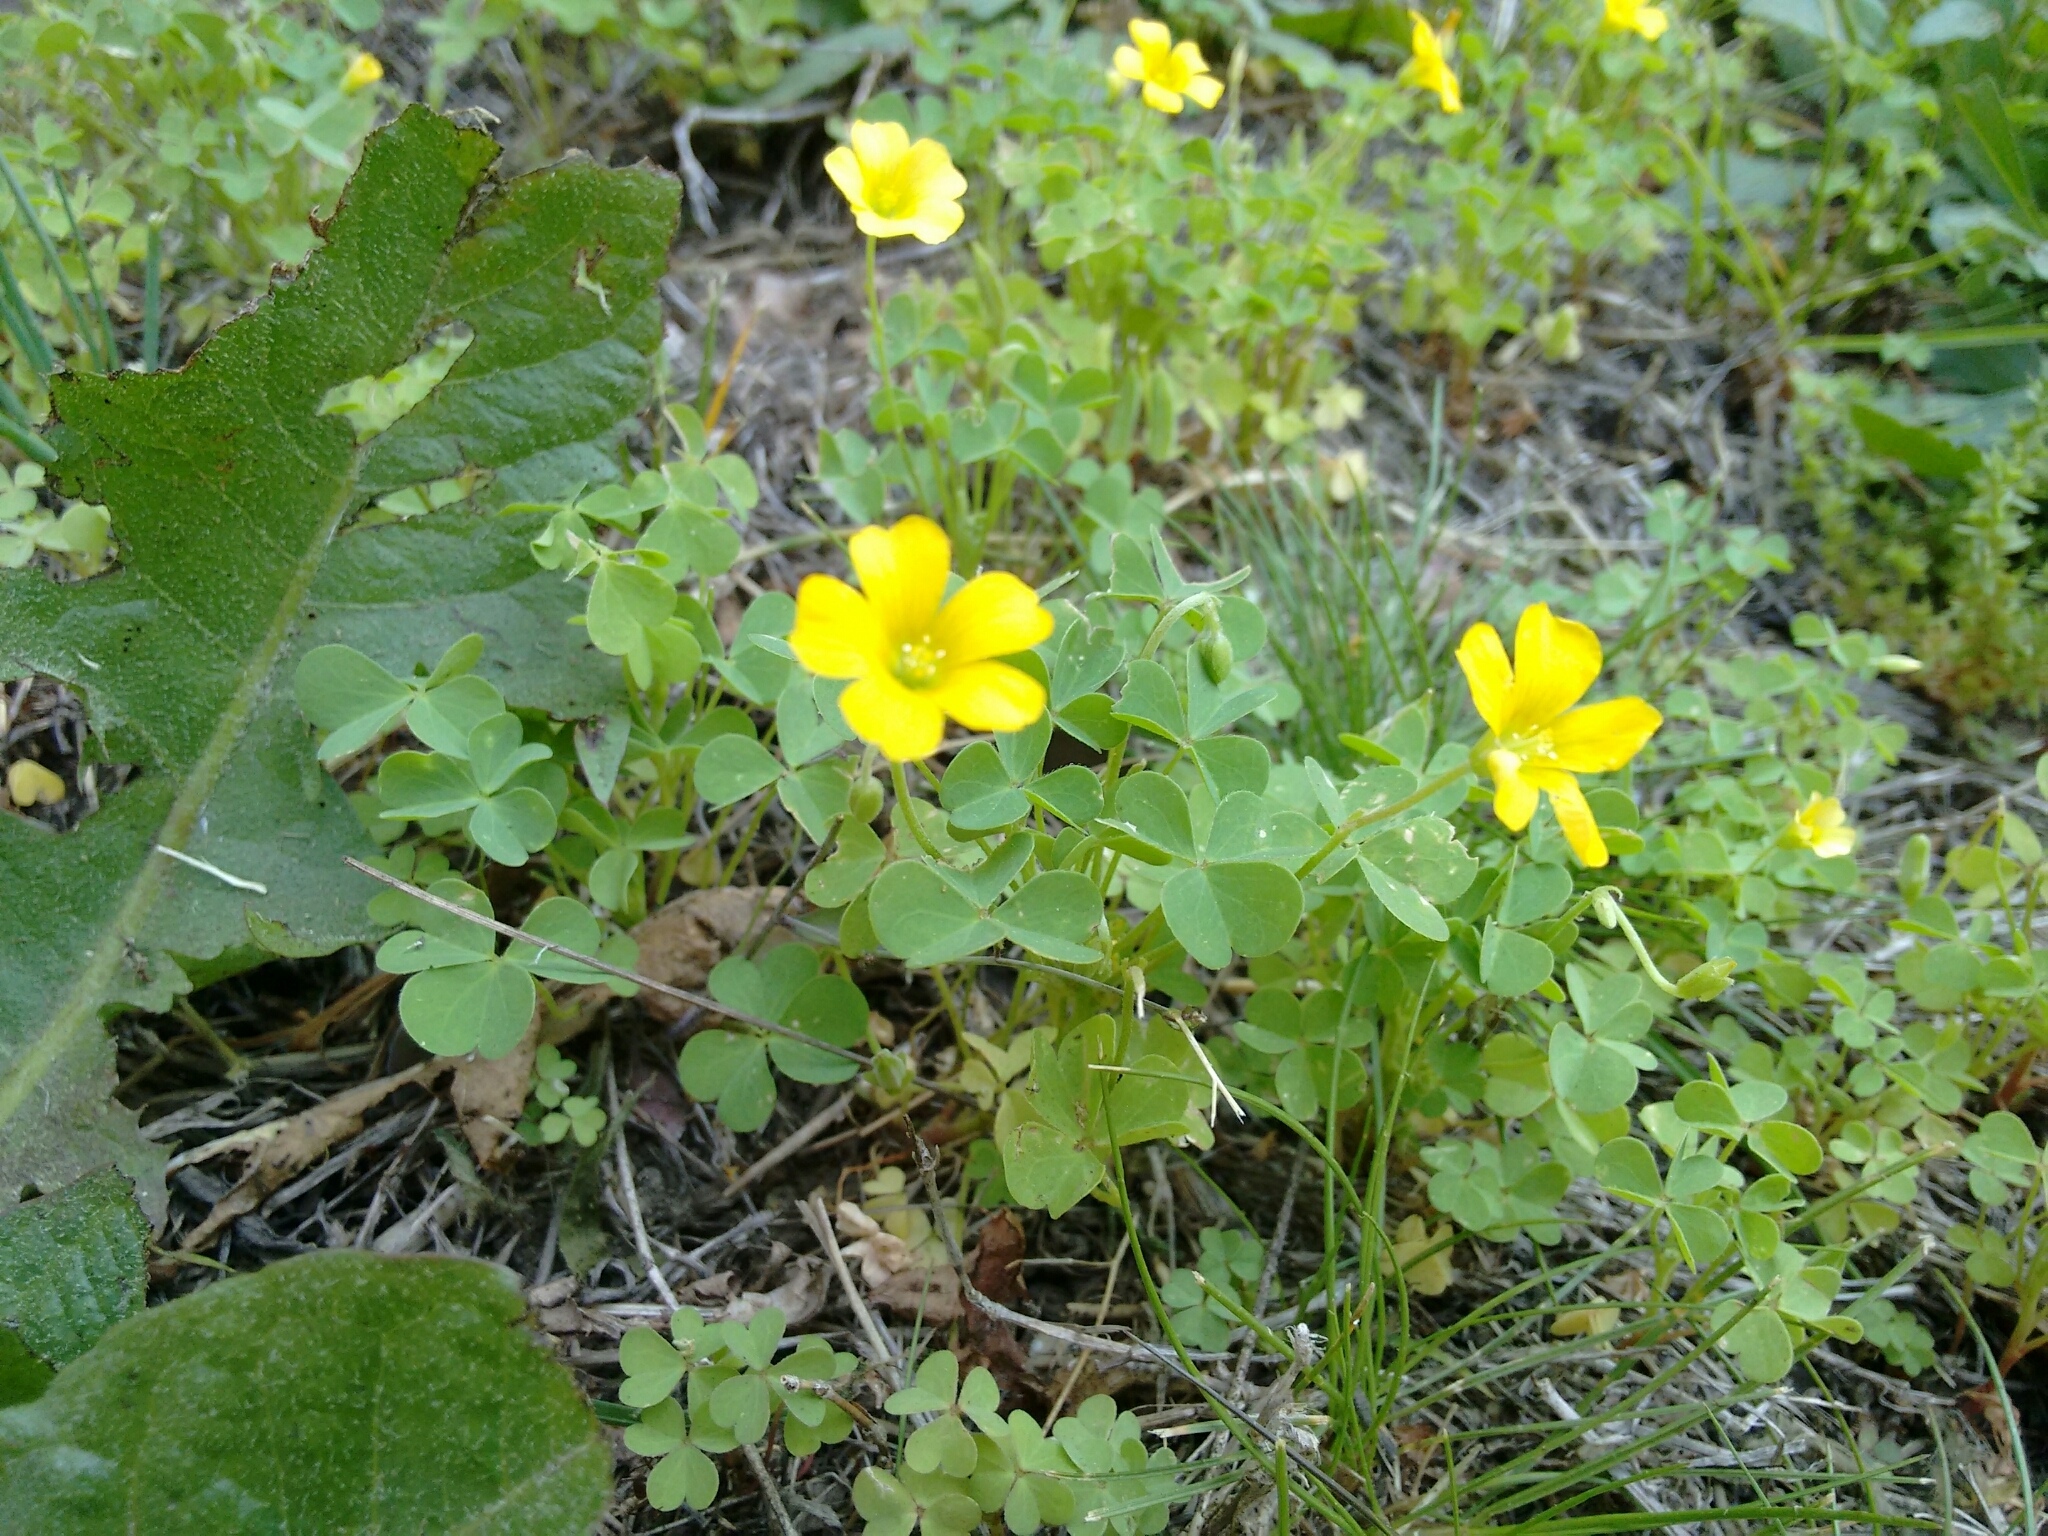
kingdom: Plantae
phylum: Tracheophyta
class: Magnoliopsida
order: Oxalidales
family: Oxalidaceae
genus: Oxalis
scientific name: Oxalis stricta
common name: Upright yellow-sorrel
